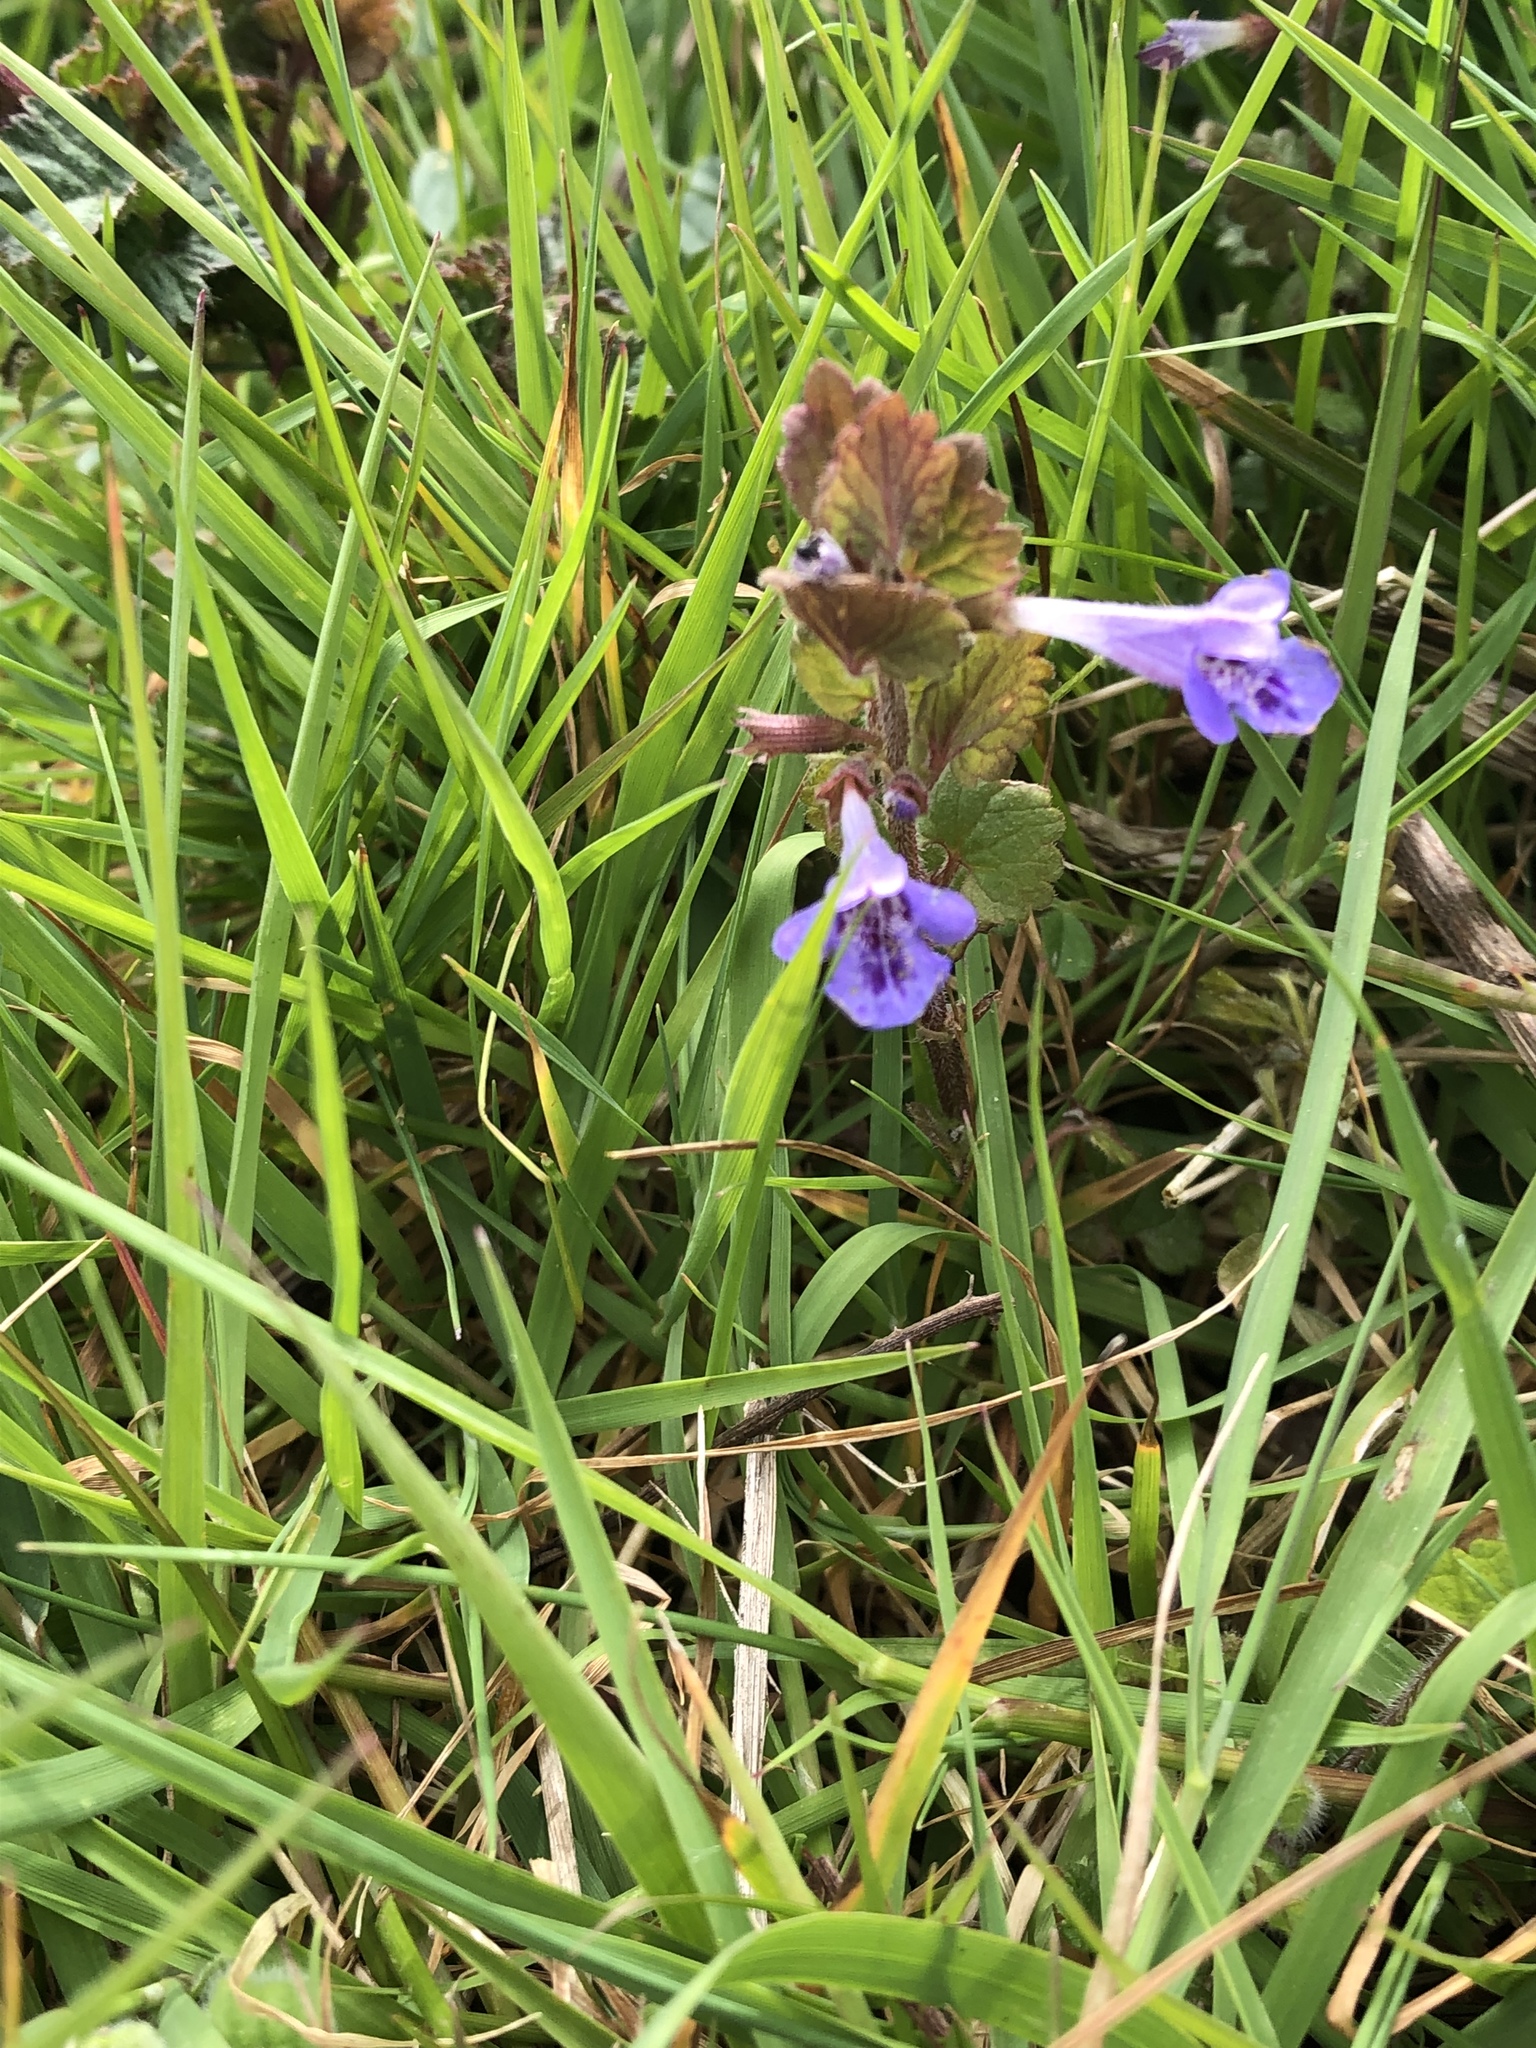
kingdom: Plantae
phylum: Tracheophyta
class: Magnoliopsida
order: Lamiales
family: Lamiaceae
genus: Glechoma
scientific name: Glechoma hederacea
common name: Ground ivy
